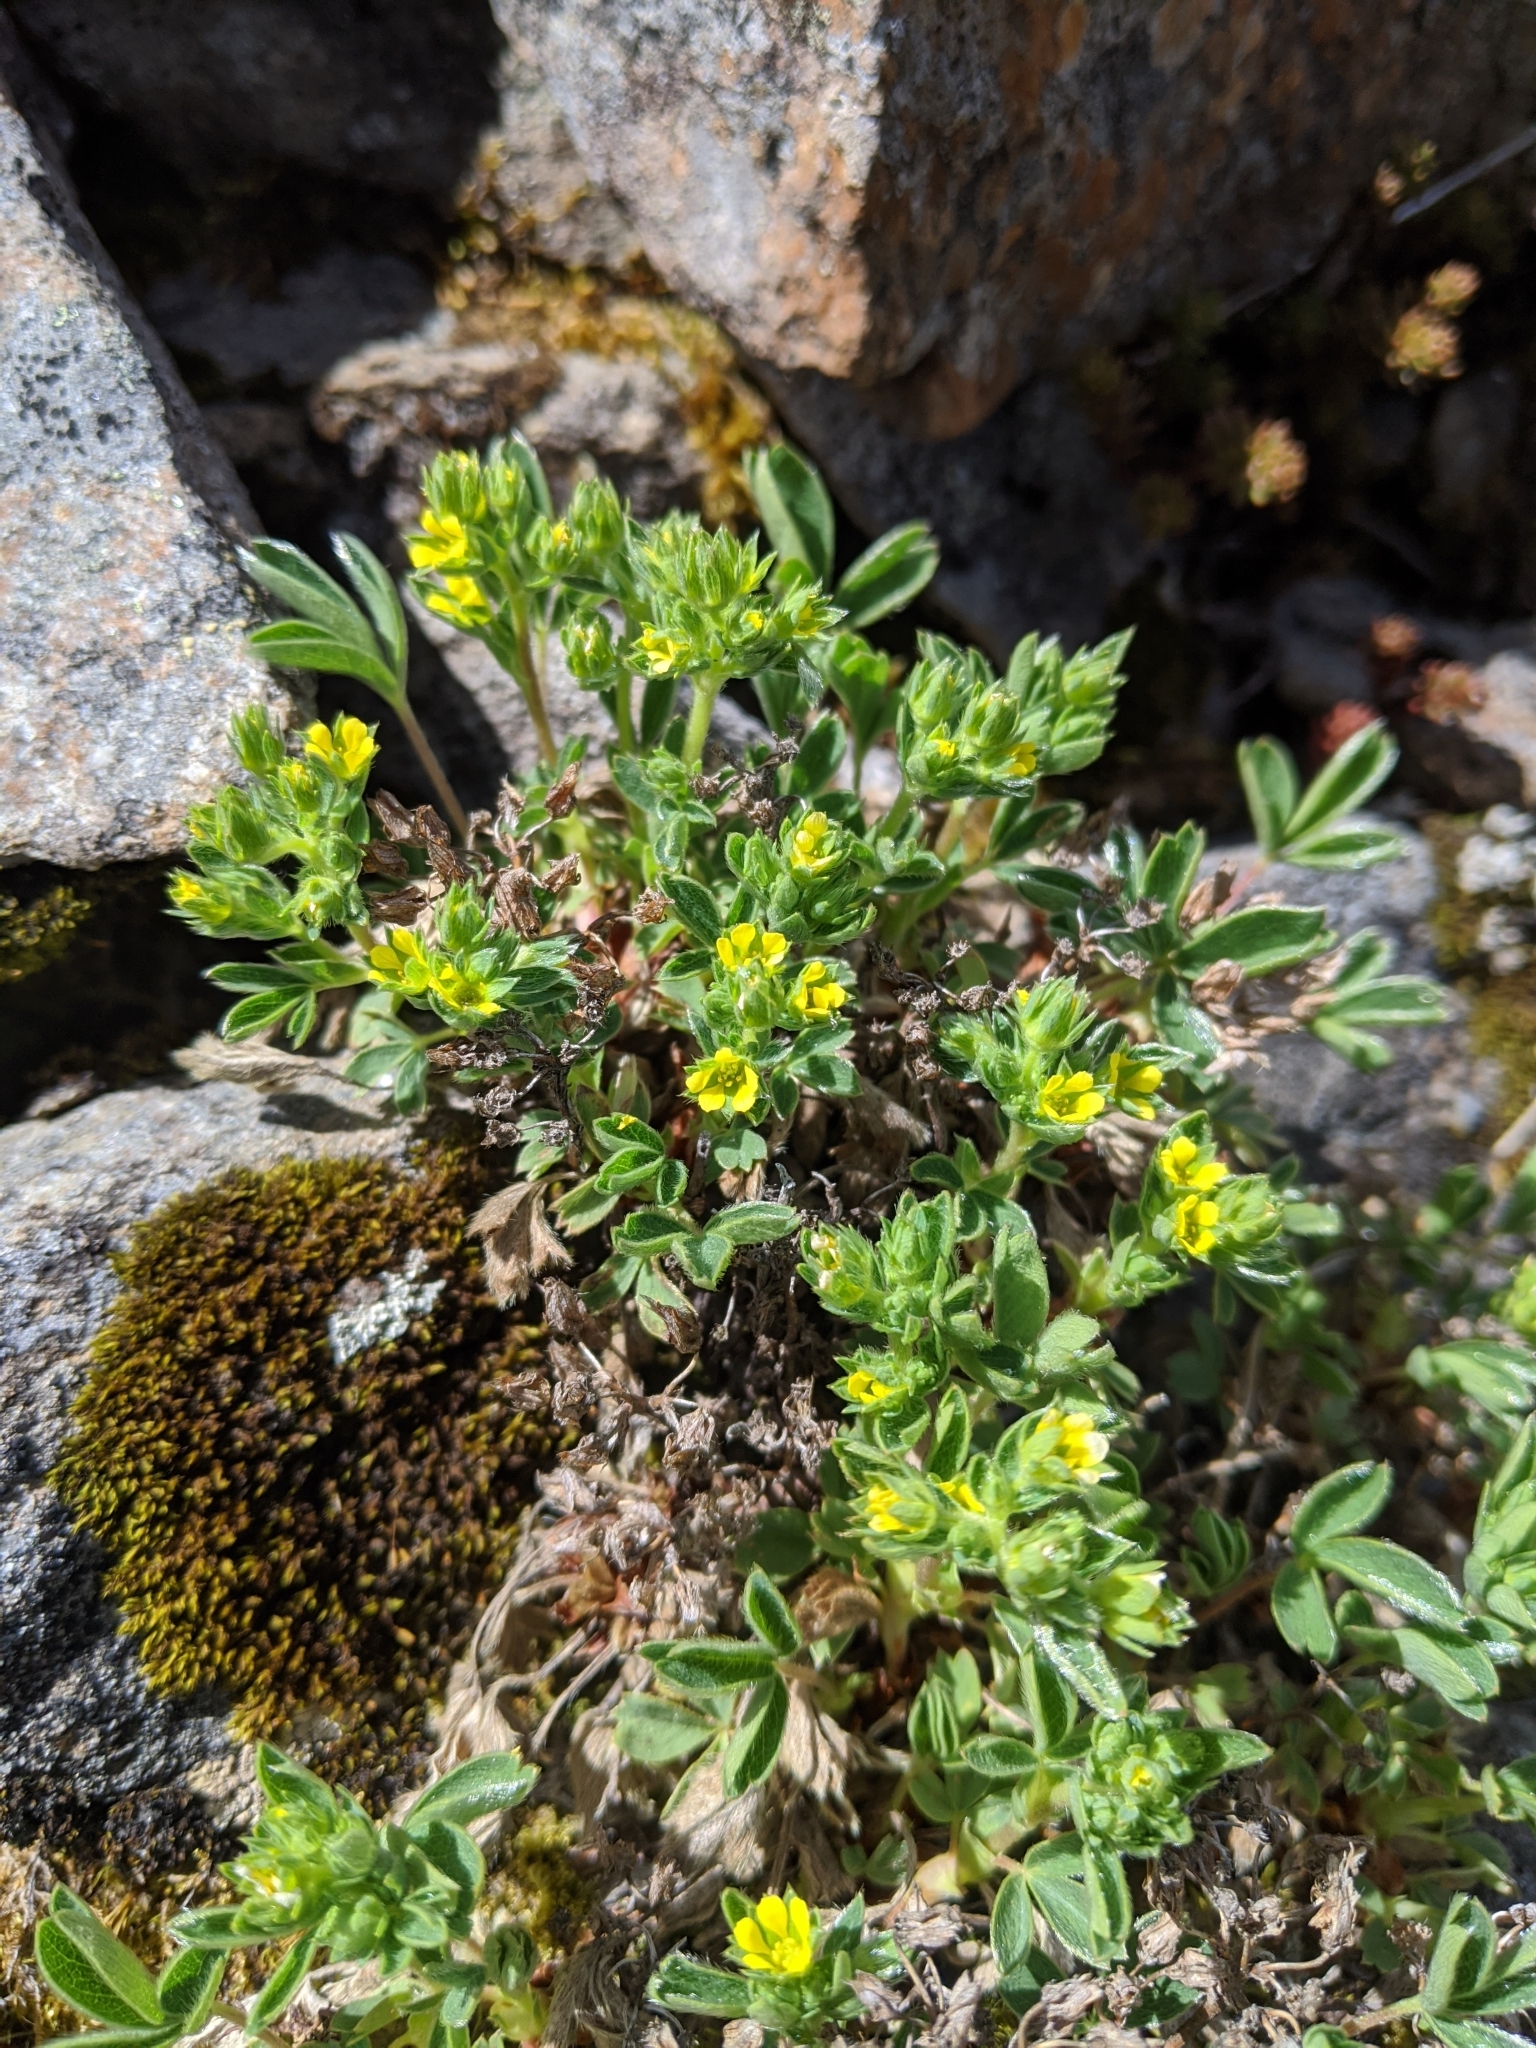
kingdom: Plantae
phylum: Tracheophyta
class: Magnoliopsida
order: Rosales
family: Rosaceae
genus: Sibbaldia
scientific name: Sibbaldia procumbens
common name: Creeping sibbaldia
